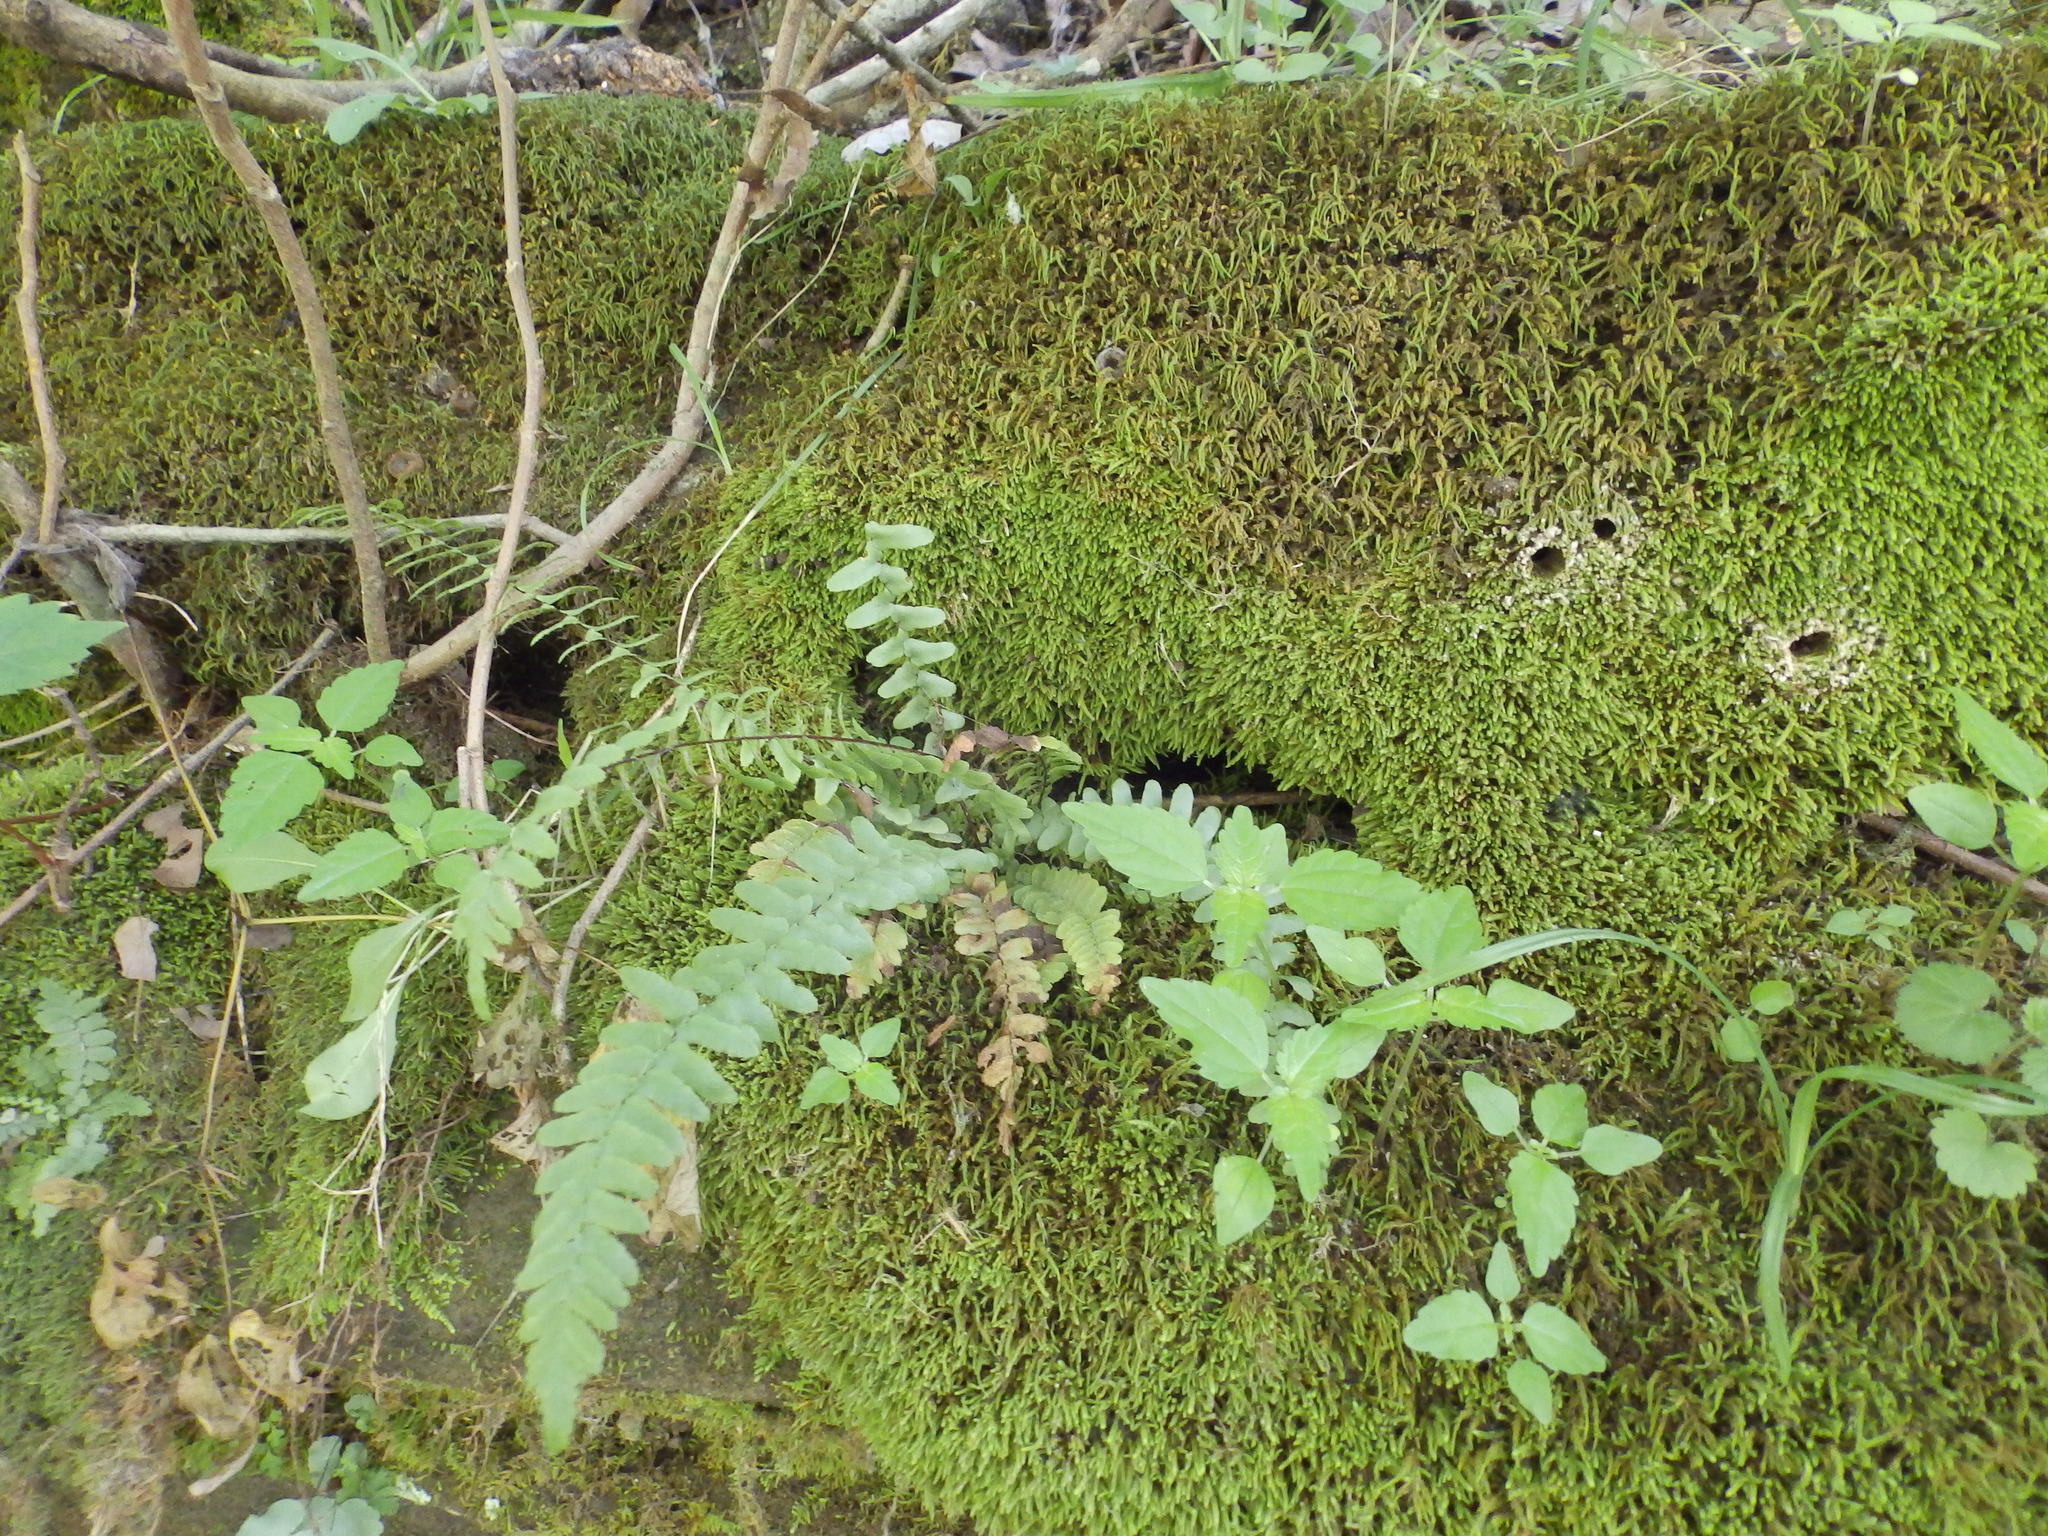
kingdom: Plantae
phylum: Tracheophyta
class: Polypodiopsida
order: Polypodiales
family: Aspleniaceae
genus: Asplenium
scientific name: Asplenium platyneuron
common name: Ebony spleenwort
